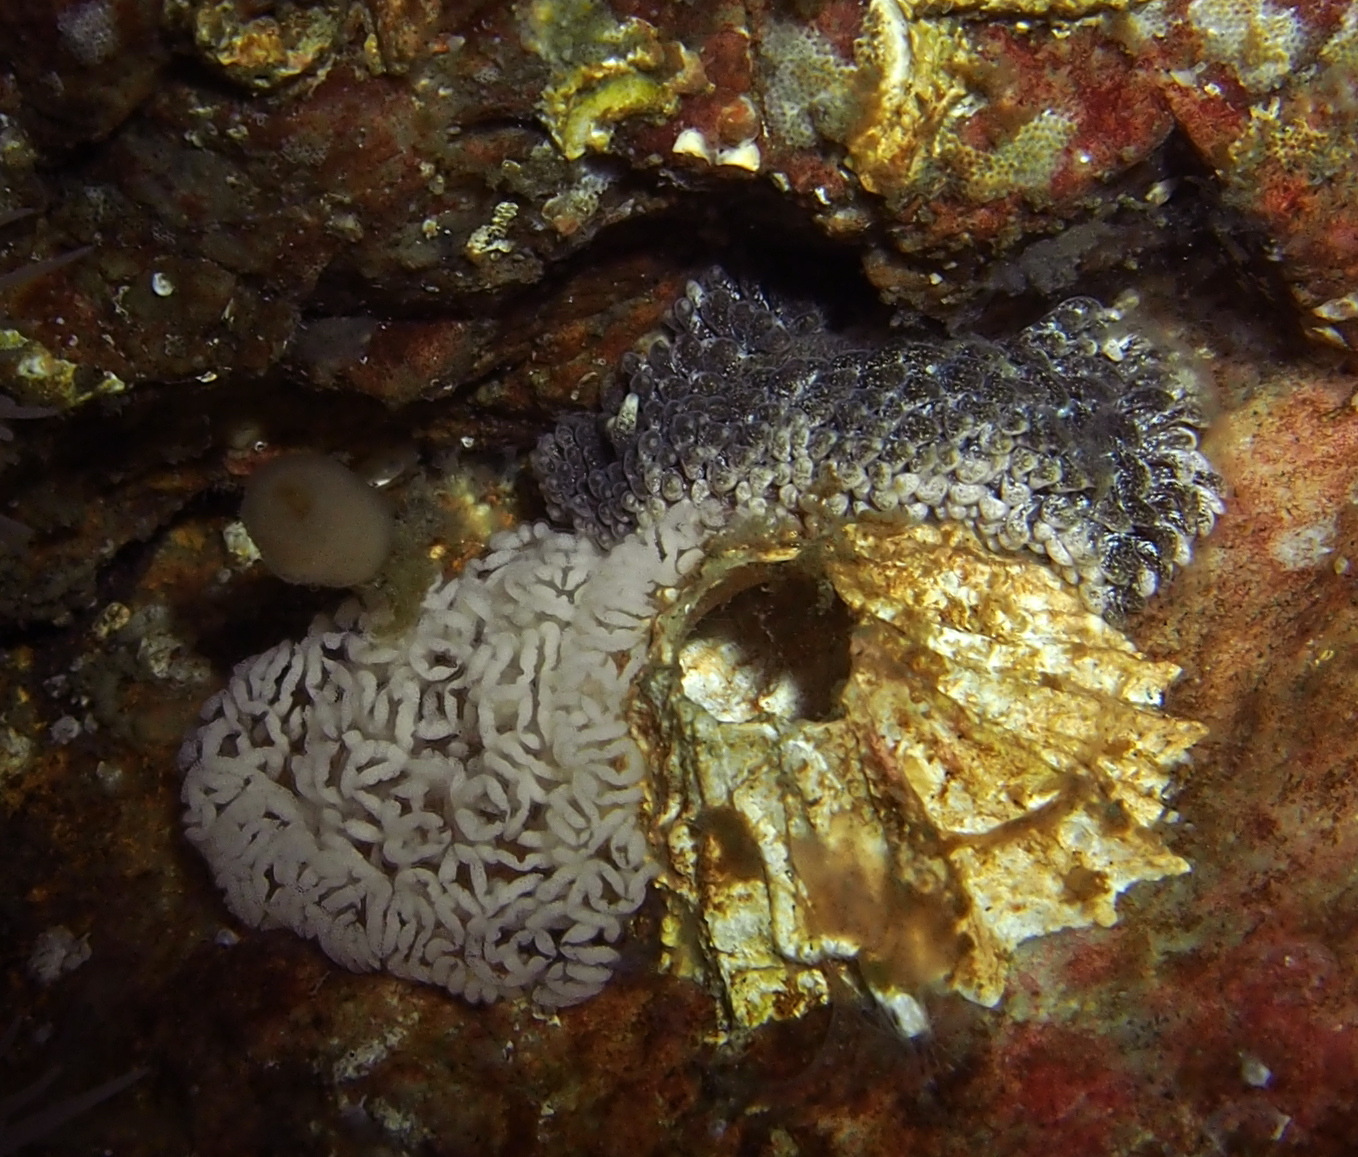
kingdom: Animalia
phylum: Mollusca
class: Gastropoda
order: Nudibranchia
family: Aeolidiidae
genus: Aeolidia
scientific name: Aeolidia papillosa
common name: Common grey sea slug
